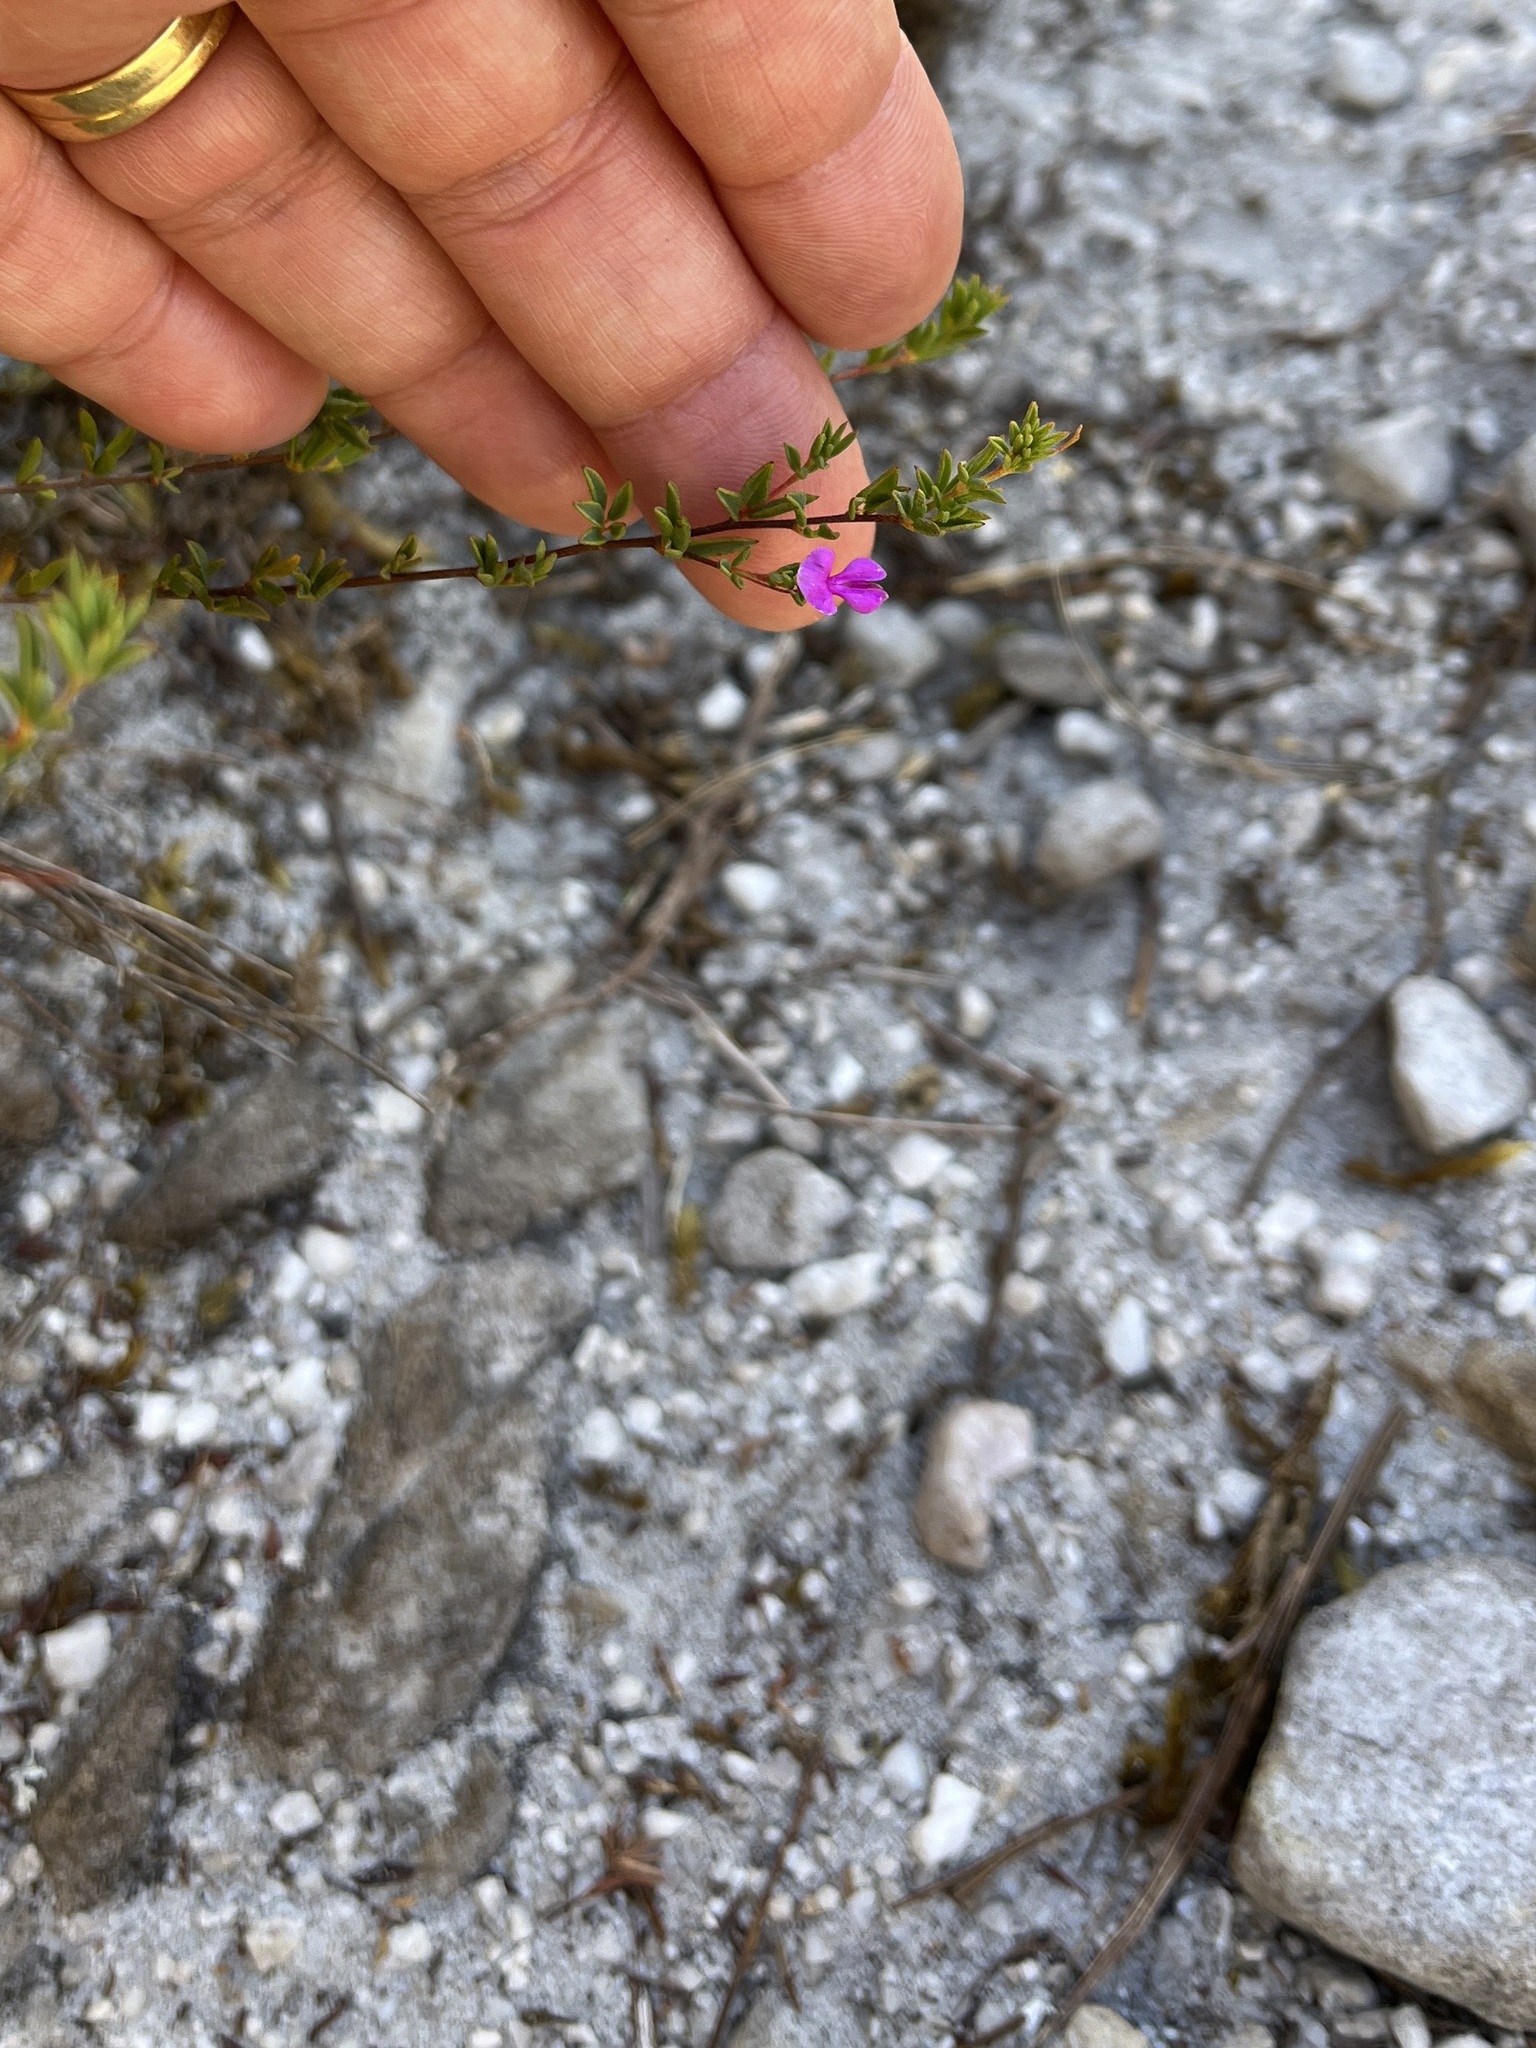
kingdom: Plantae
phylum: Tracheophyta
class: Magnoliopsida
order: Fabales
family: Fabaceae
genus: Indigofera
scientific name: Indigofera sarmentosa
